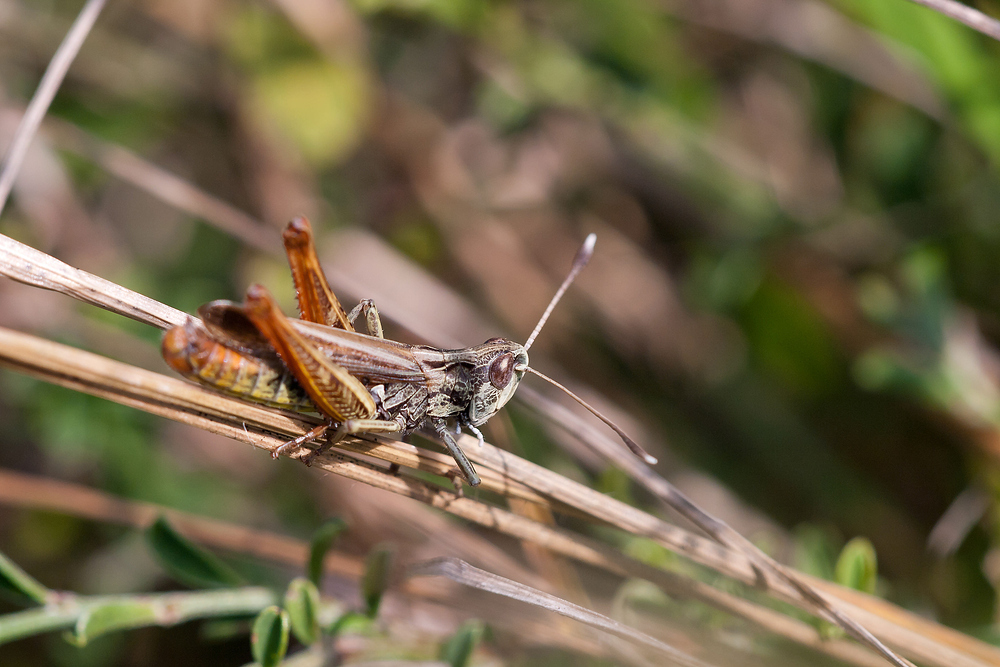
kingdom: Animalia
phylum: Arthropoda
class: Insecta
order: Orthoptera
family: Acrididae
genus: Gomphocerippus
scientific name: Gomphocerippus rufus
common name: Rufous grasshopper
